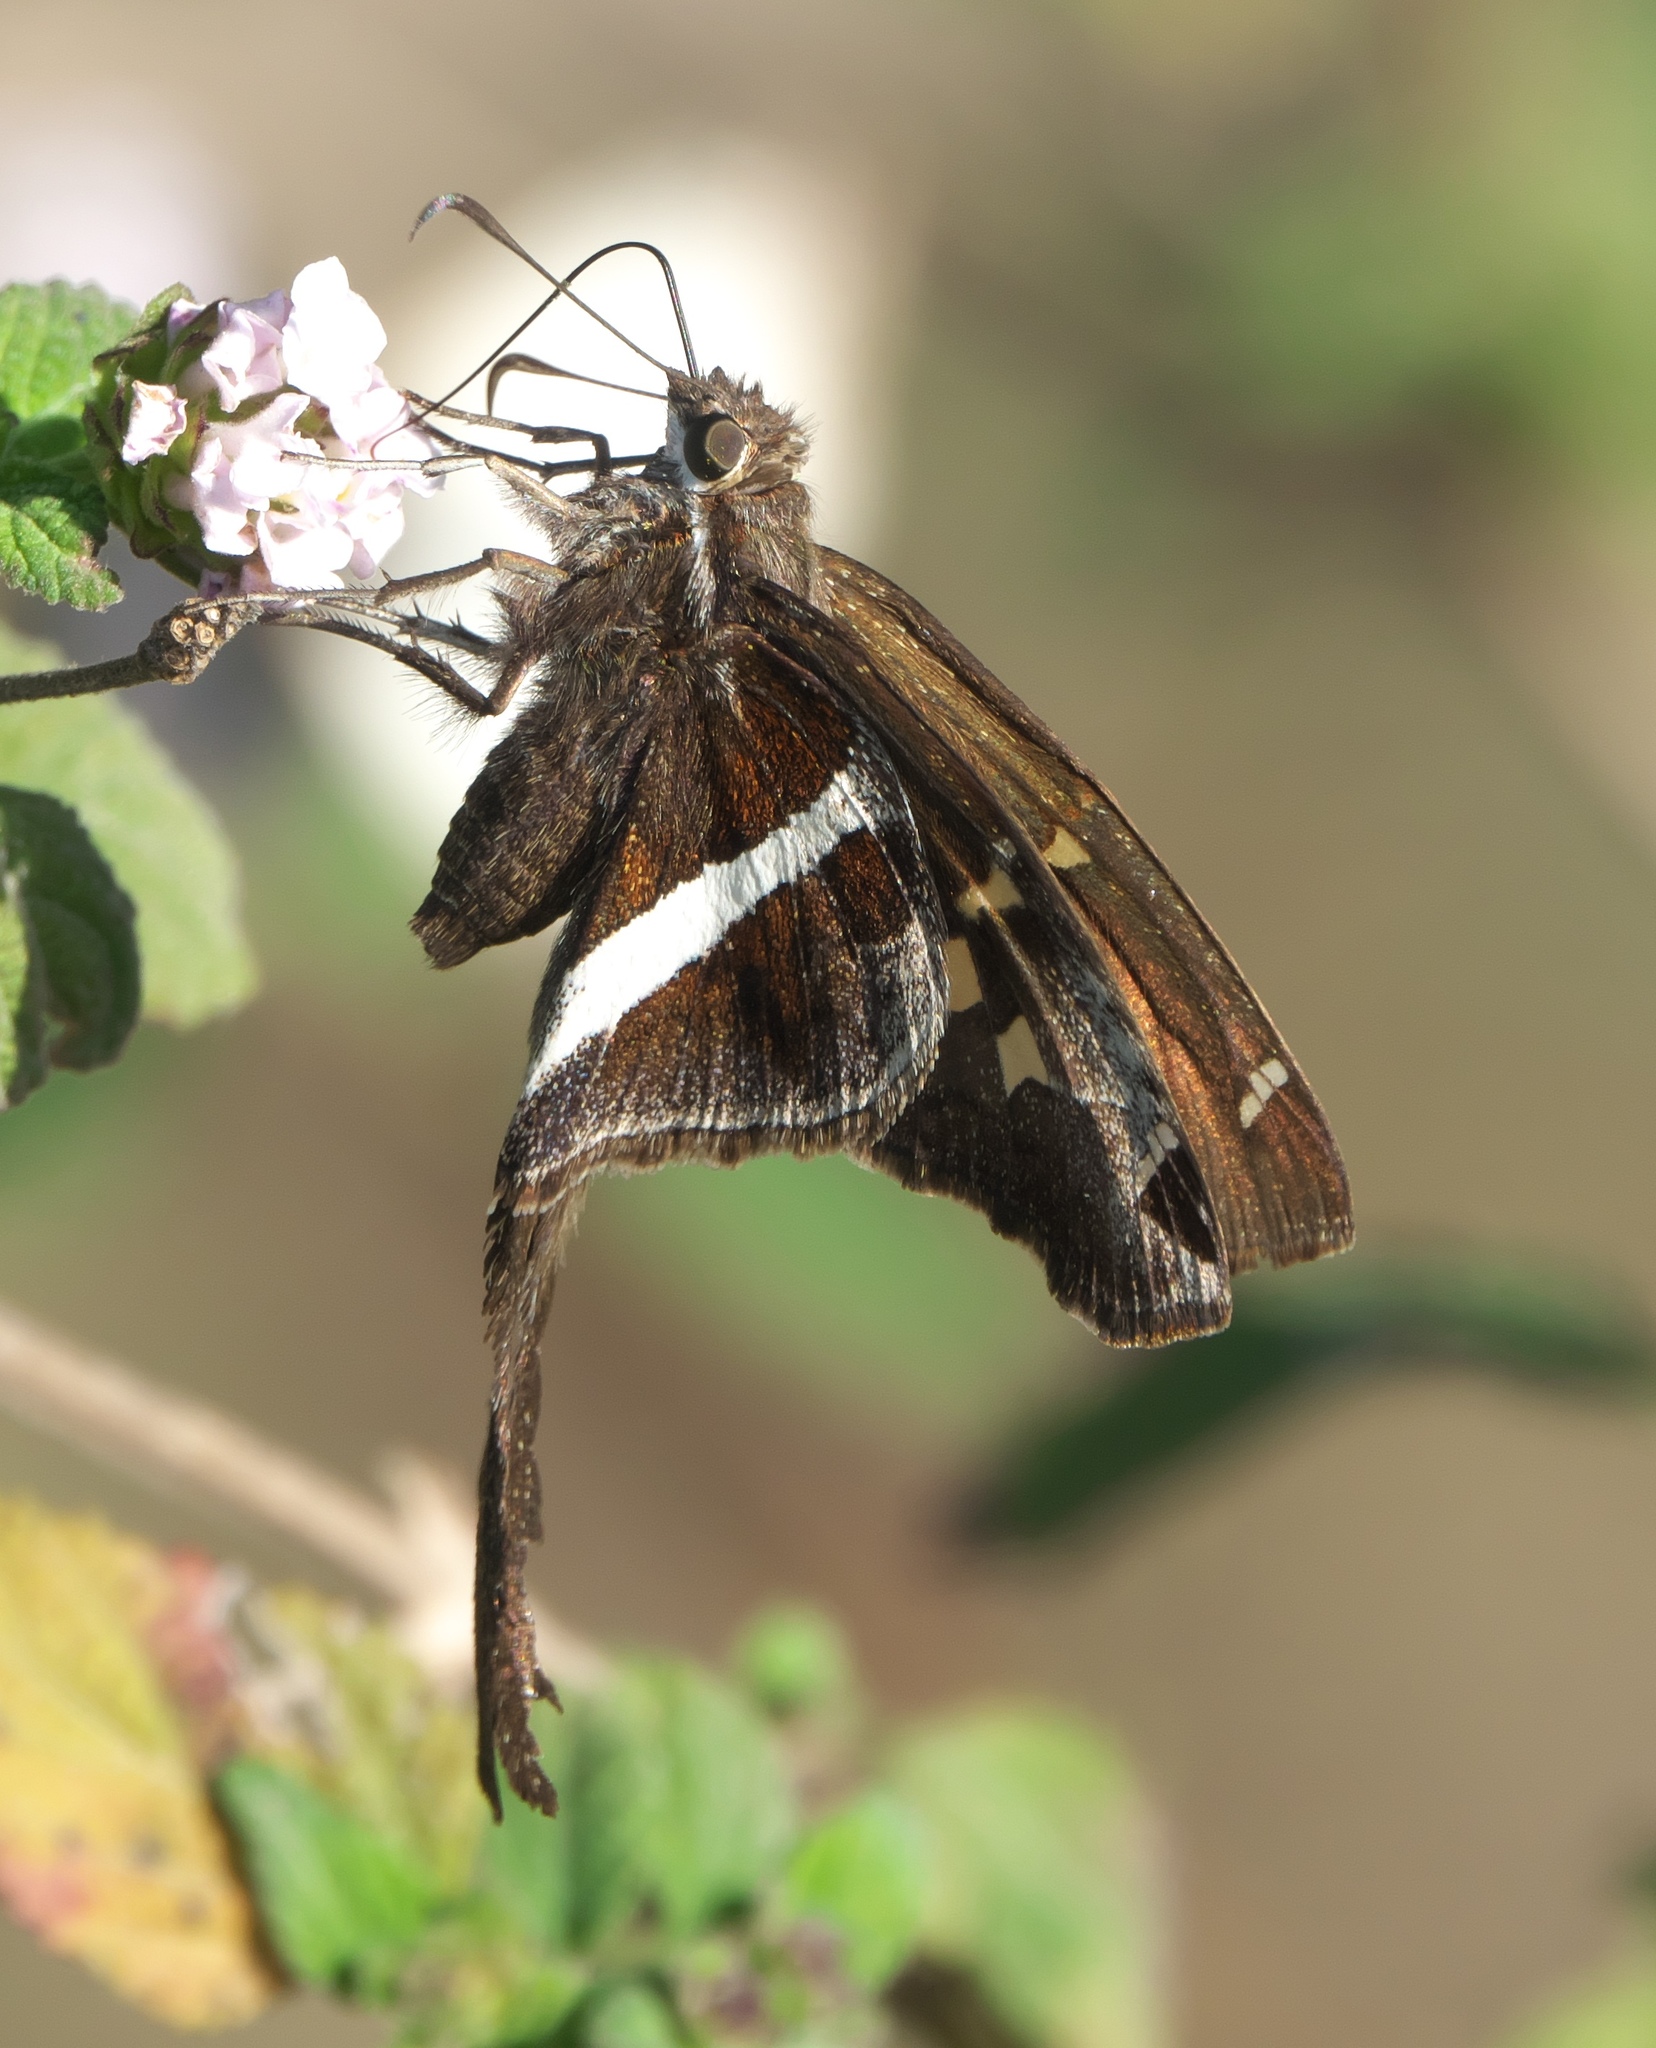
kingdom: Animalia
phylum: Arthropoda
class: Insecta
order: Lepidoptera
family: Hesperiidae
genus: Chioides
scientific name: Chioides catillus
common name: Silverbanded skipper
